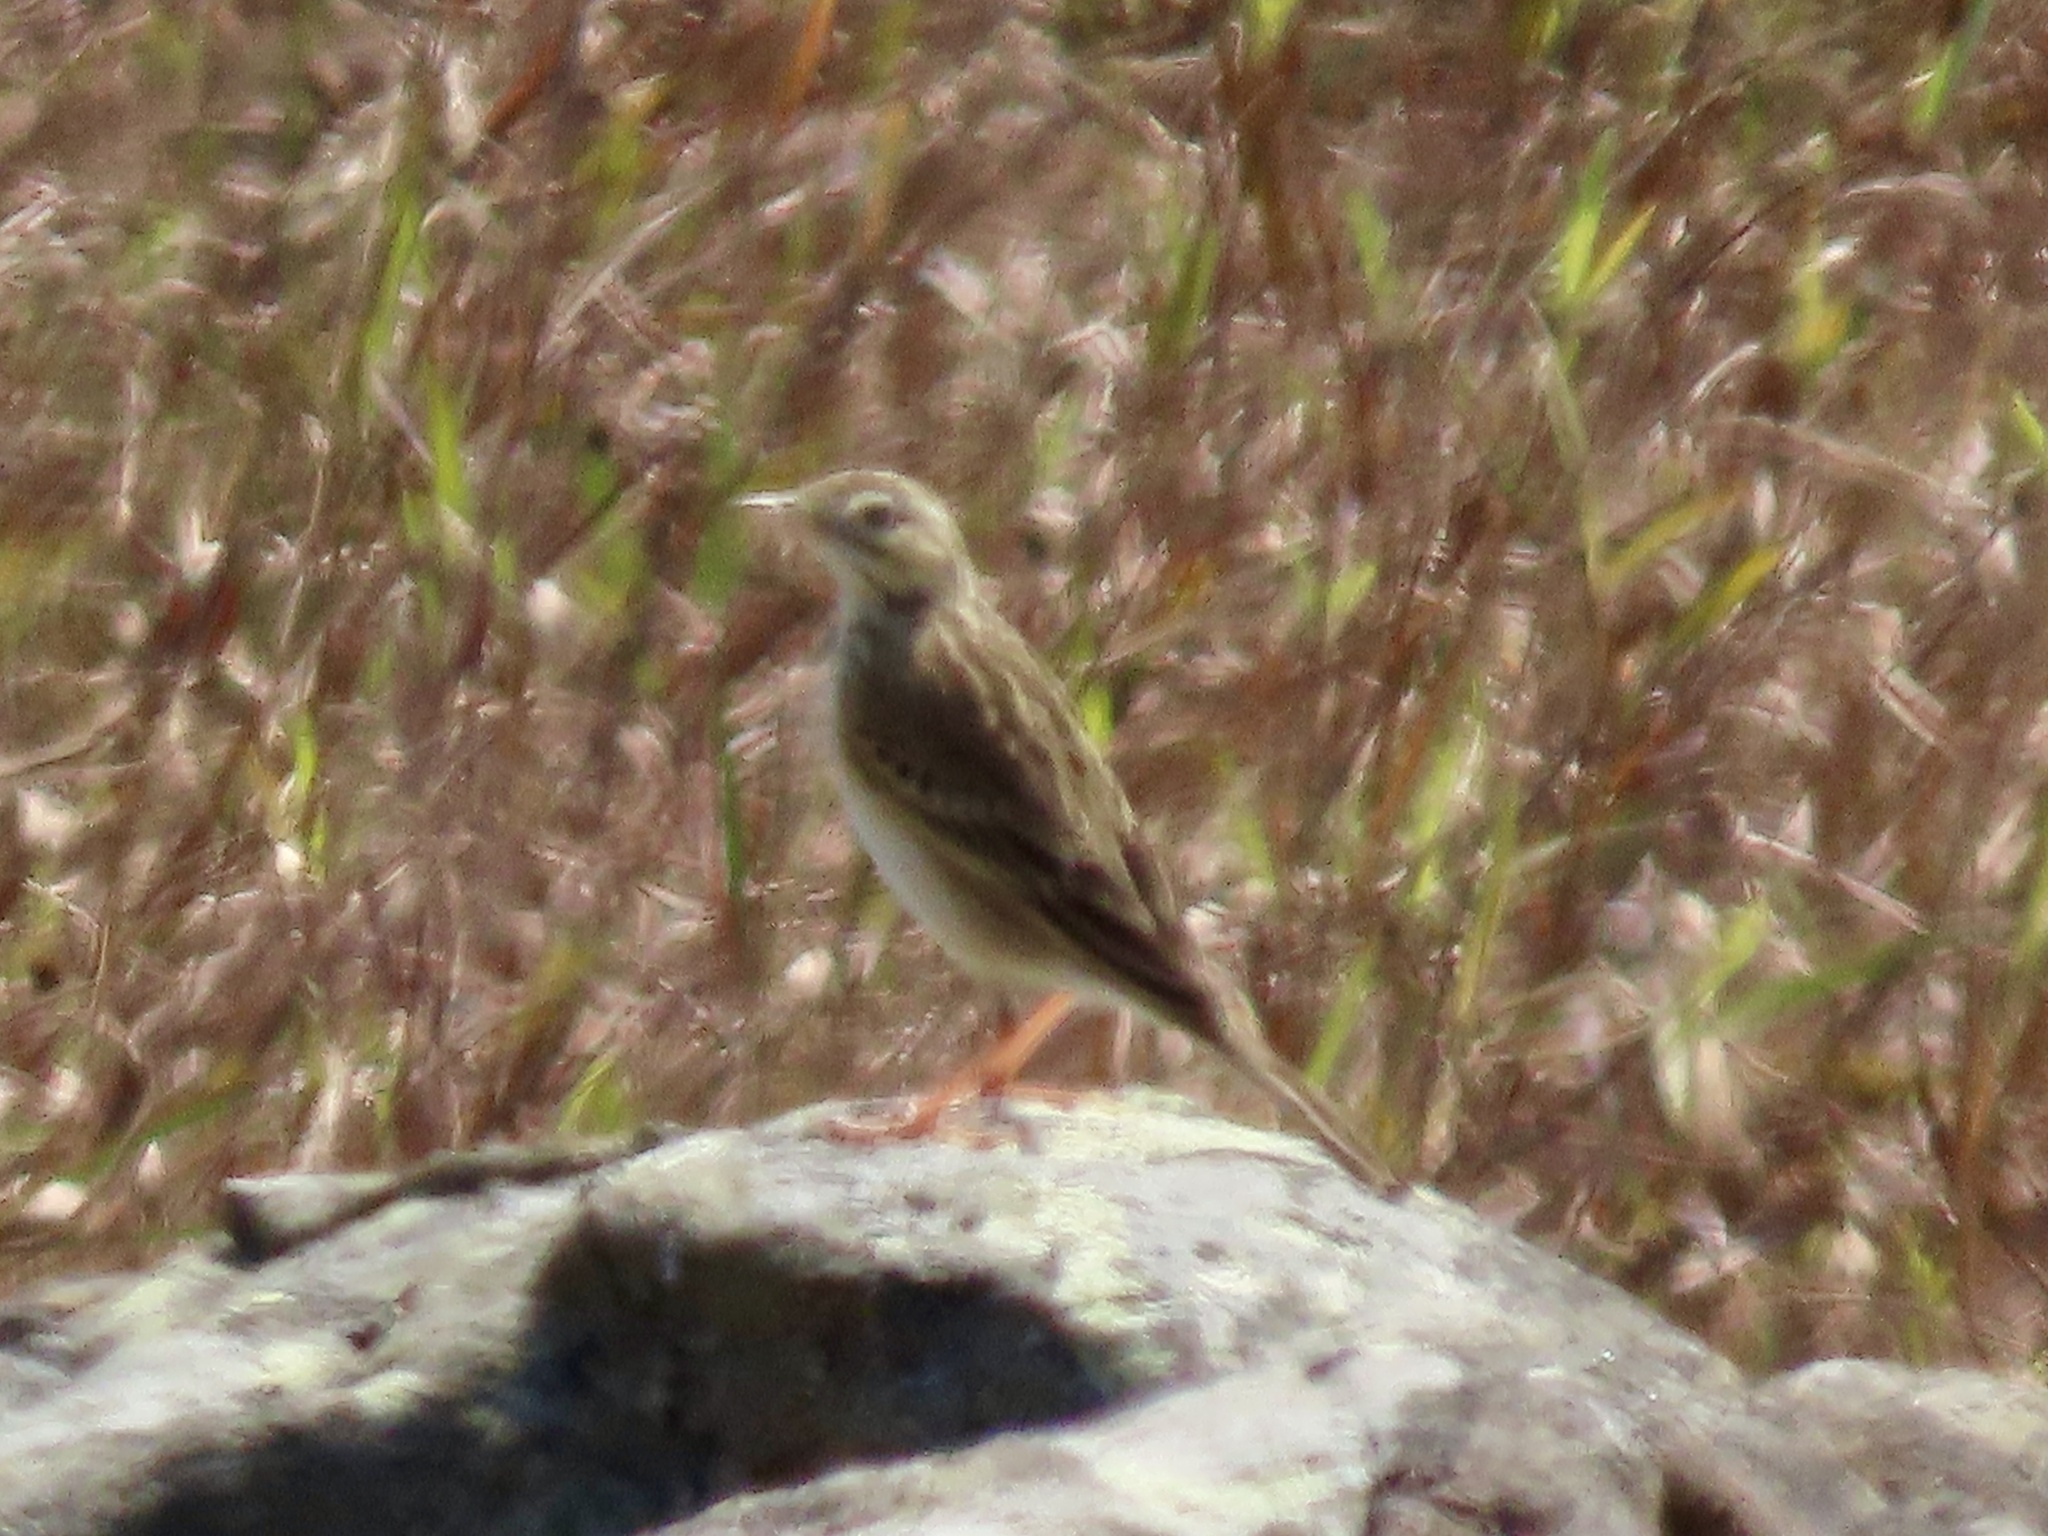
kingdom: Animalia
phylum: Chordata
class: Aves
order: Passeriformes
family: Motacillidae
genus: Anthus
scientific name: Anthus richardi
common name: Richard's pipit
